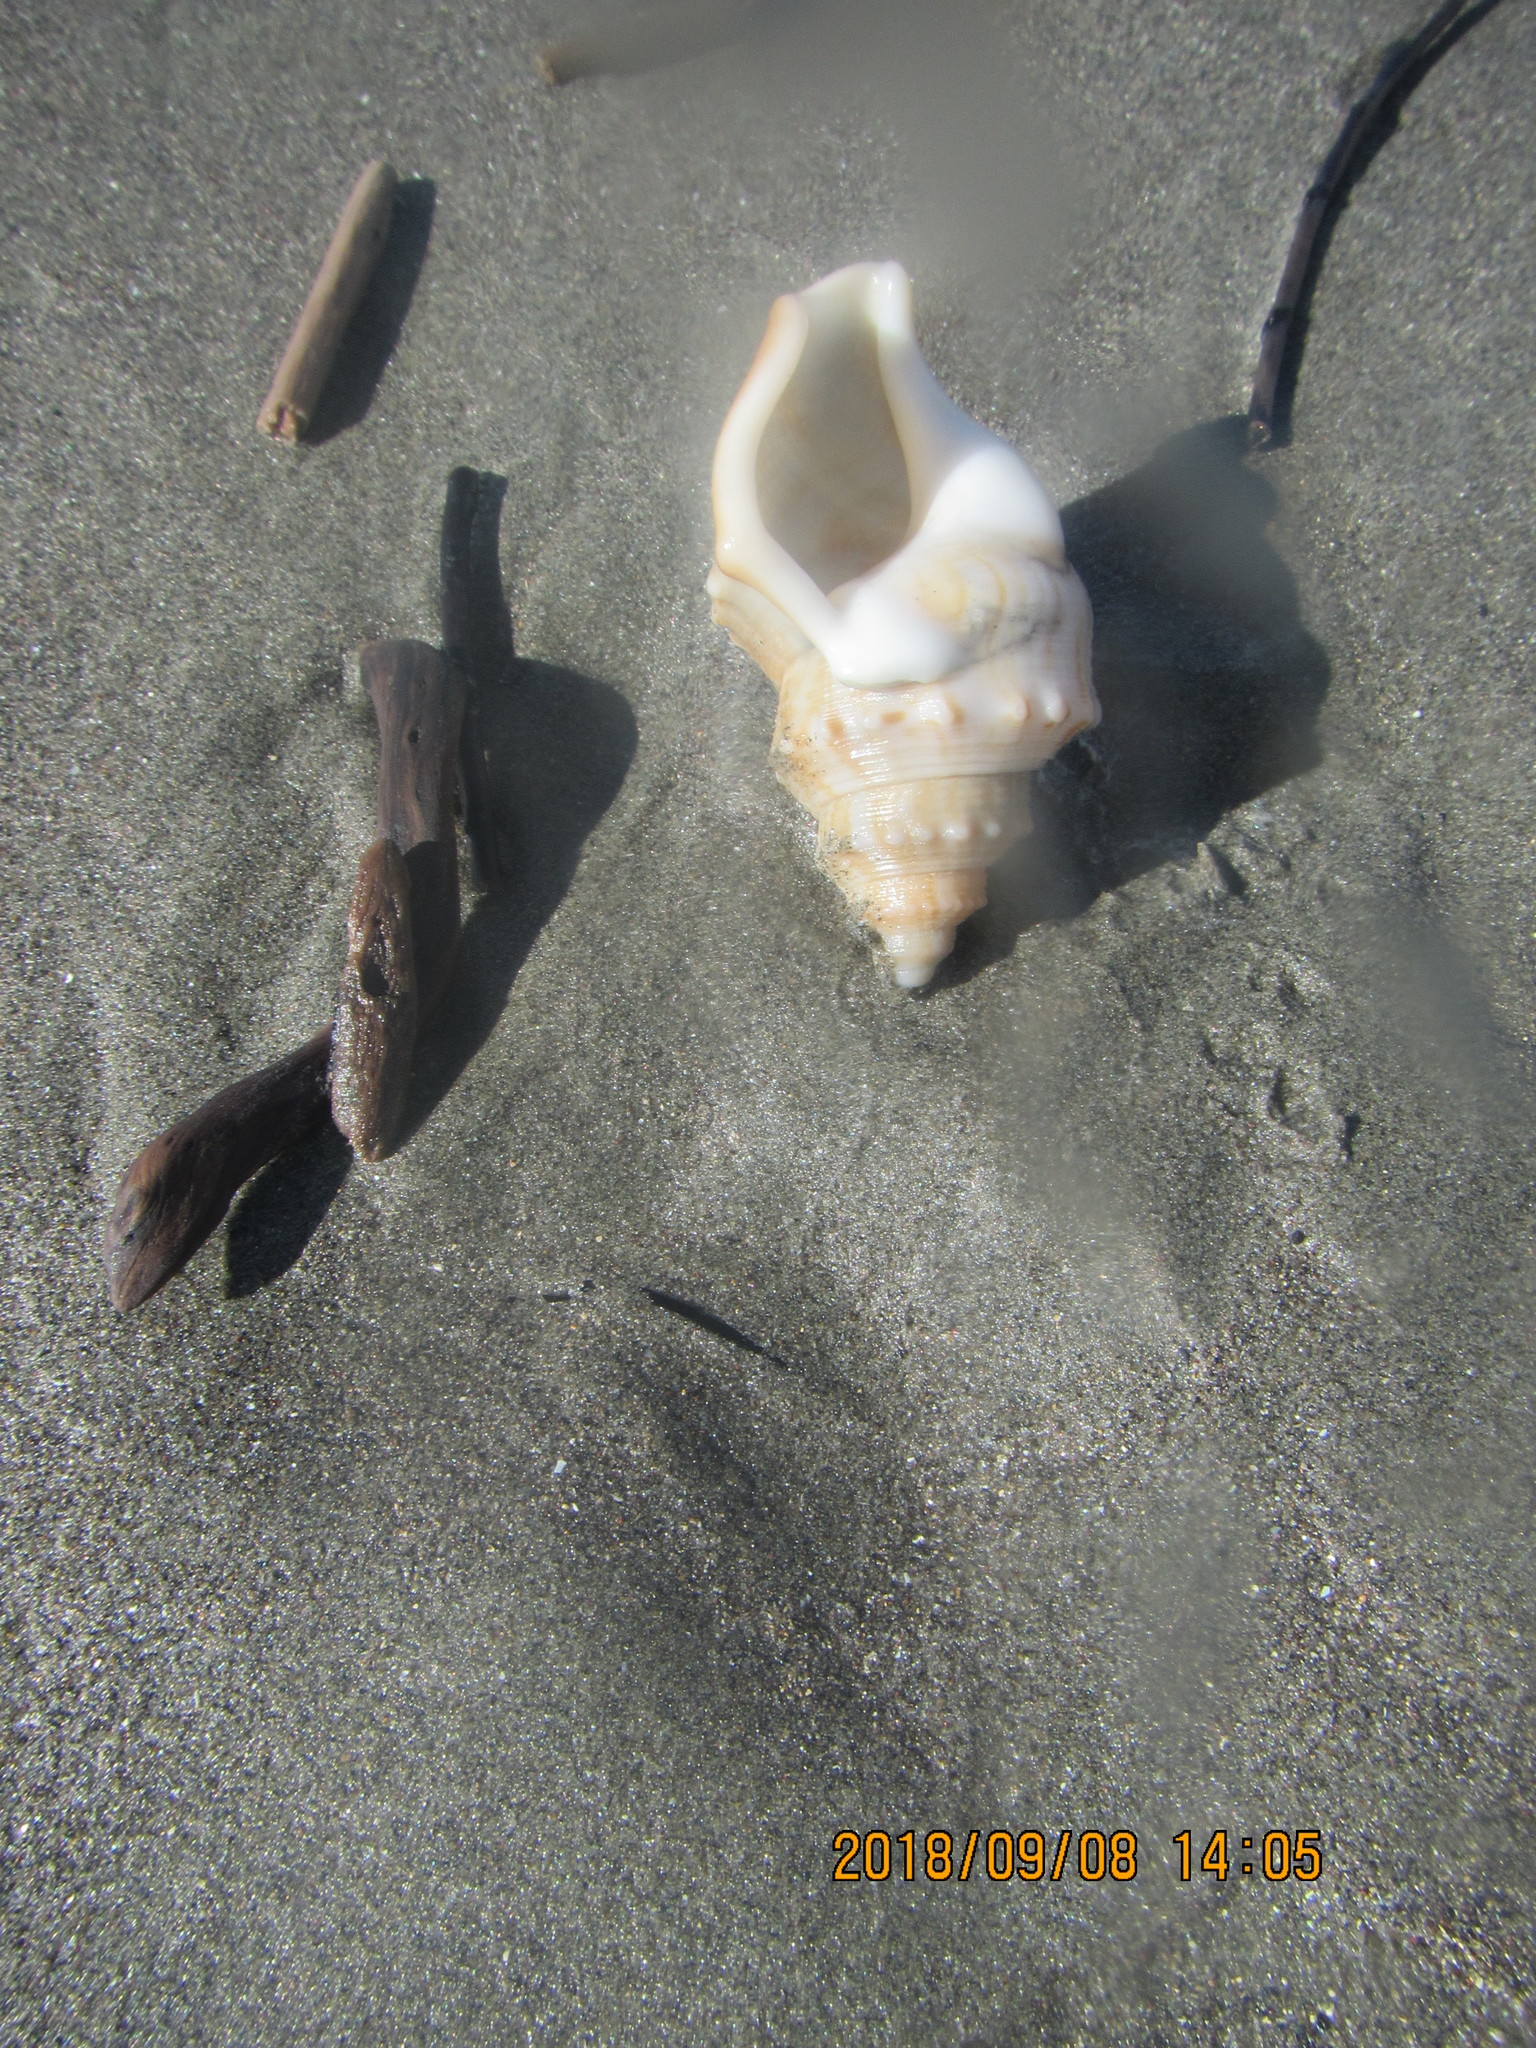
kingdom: Animalia
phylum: Mollusca
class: Gastropoda
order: Littorinimorpha
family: Struthiolariidae
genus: Struthiolaria
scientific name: Struthiolaria papulosa
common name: Large ostrich foot
